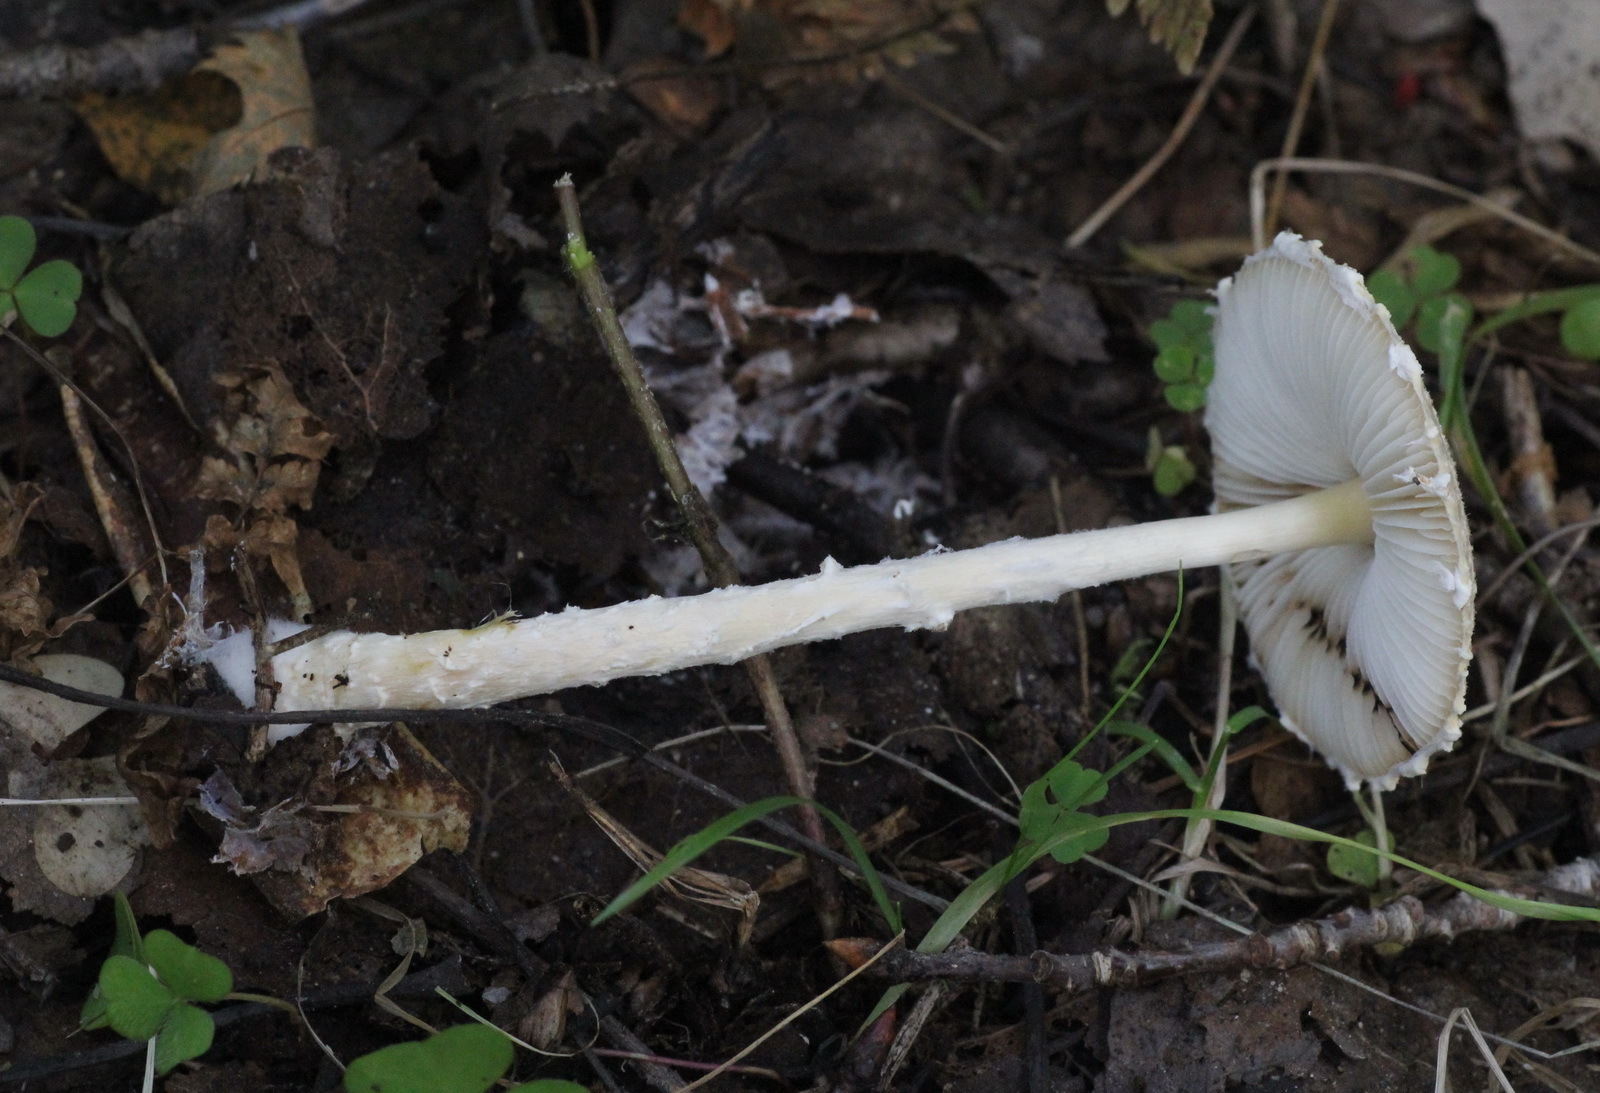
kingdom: Fungi
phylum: Basidiomycota
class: Agaricomycetes
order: Agaricales
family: Agaricaceae
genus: Lepiota
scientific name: Lepiota clypeolaria
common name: Shield dapperling
